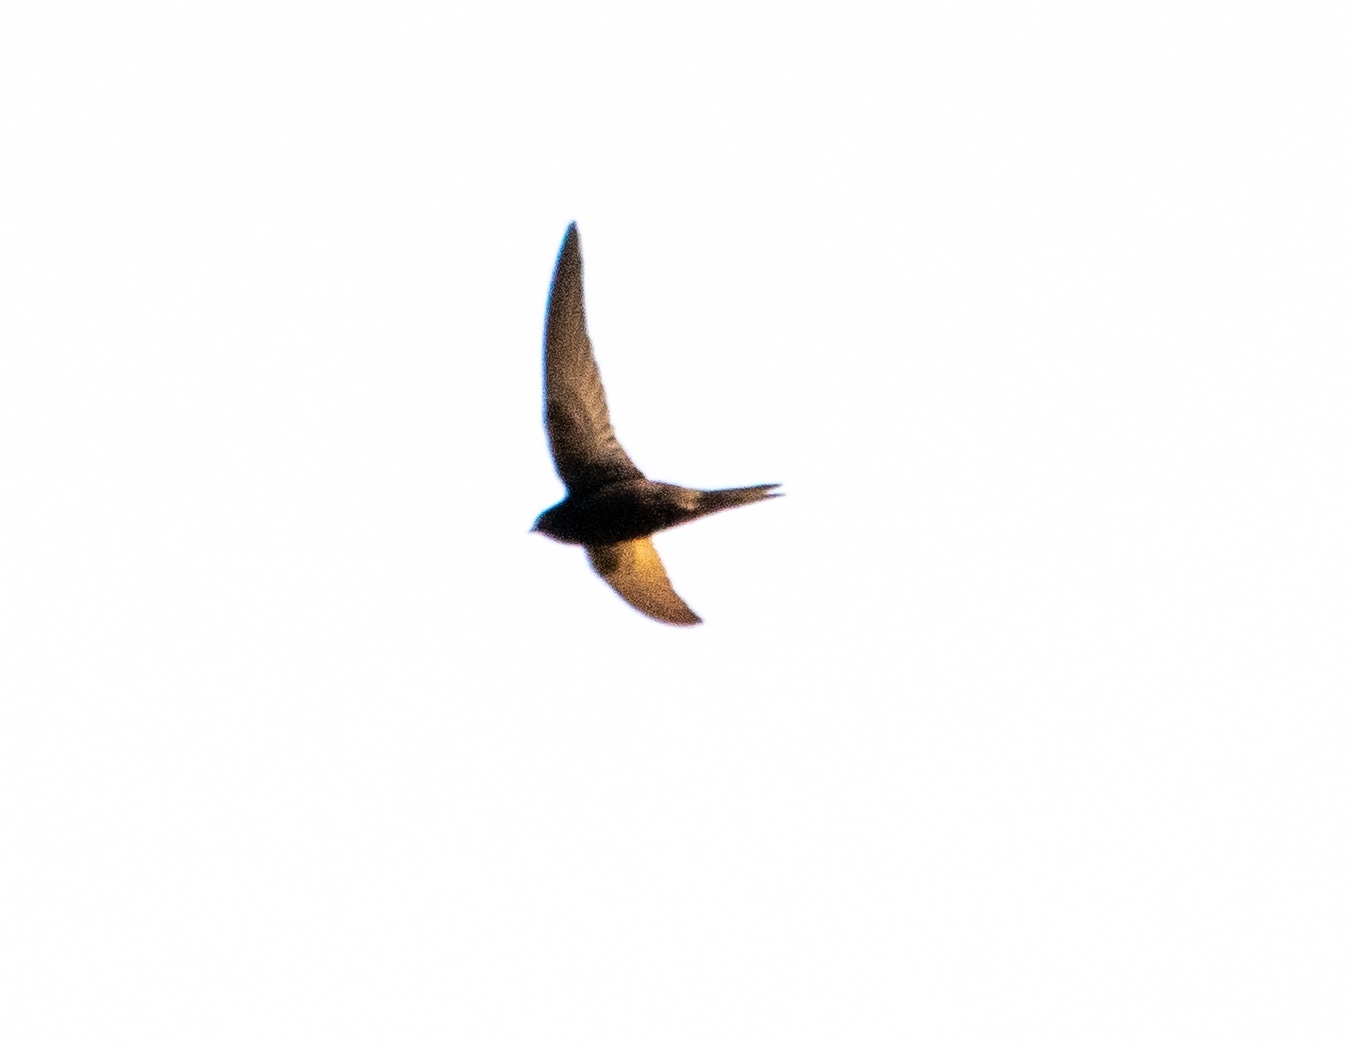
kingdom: Animalia
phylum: Chordata
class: Aves
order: Apodiformes
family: Apodidae
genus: Apus
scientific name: Apus apus
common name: Common swift
